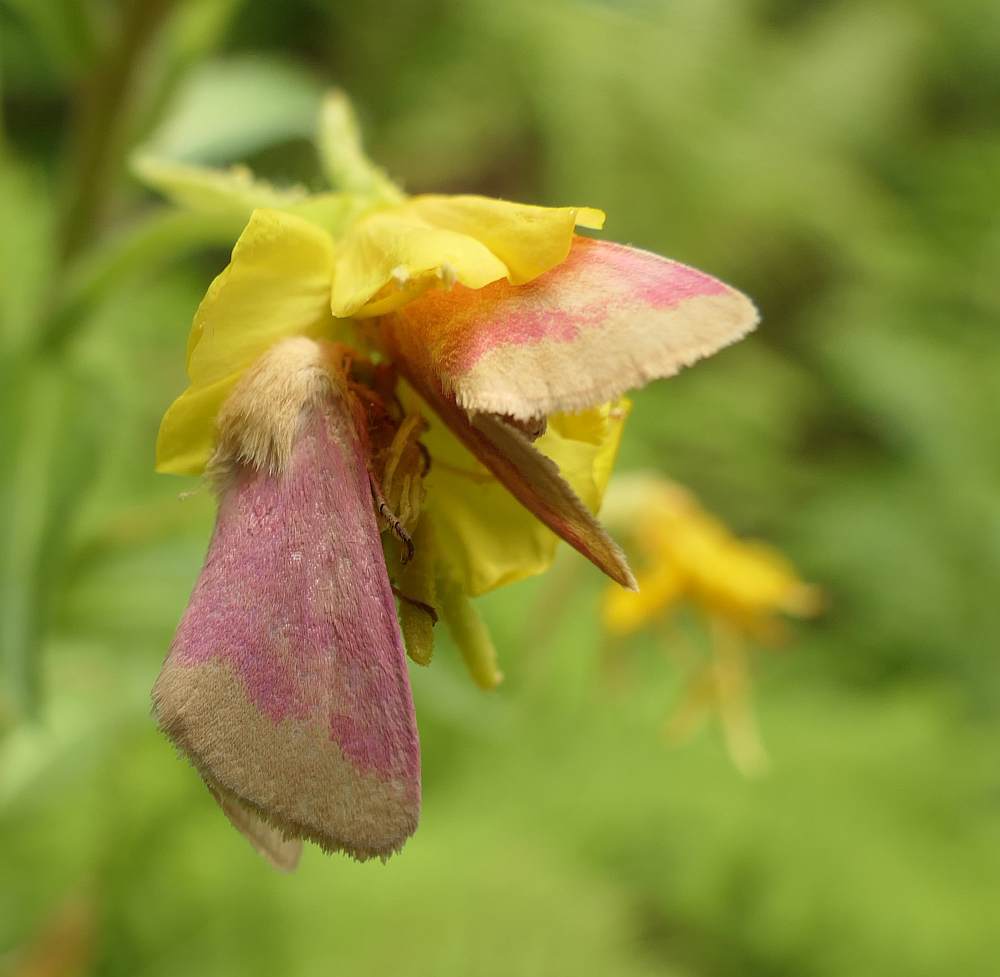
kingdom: Animalia
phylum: Arthropoda
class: Insecta
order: Lepidoptera
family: Noctuidae
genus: Schinia
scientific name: Schinia florida
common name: Primrose moth
